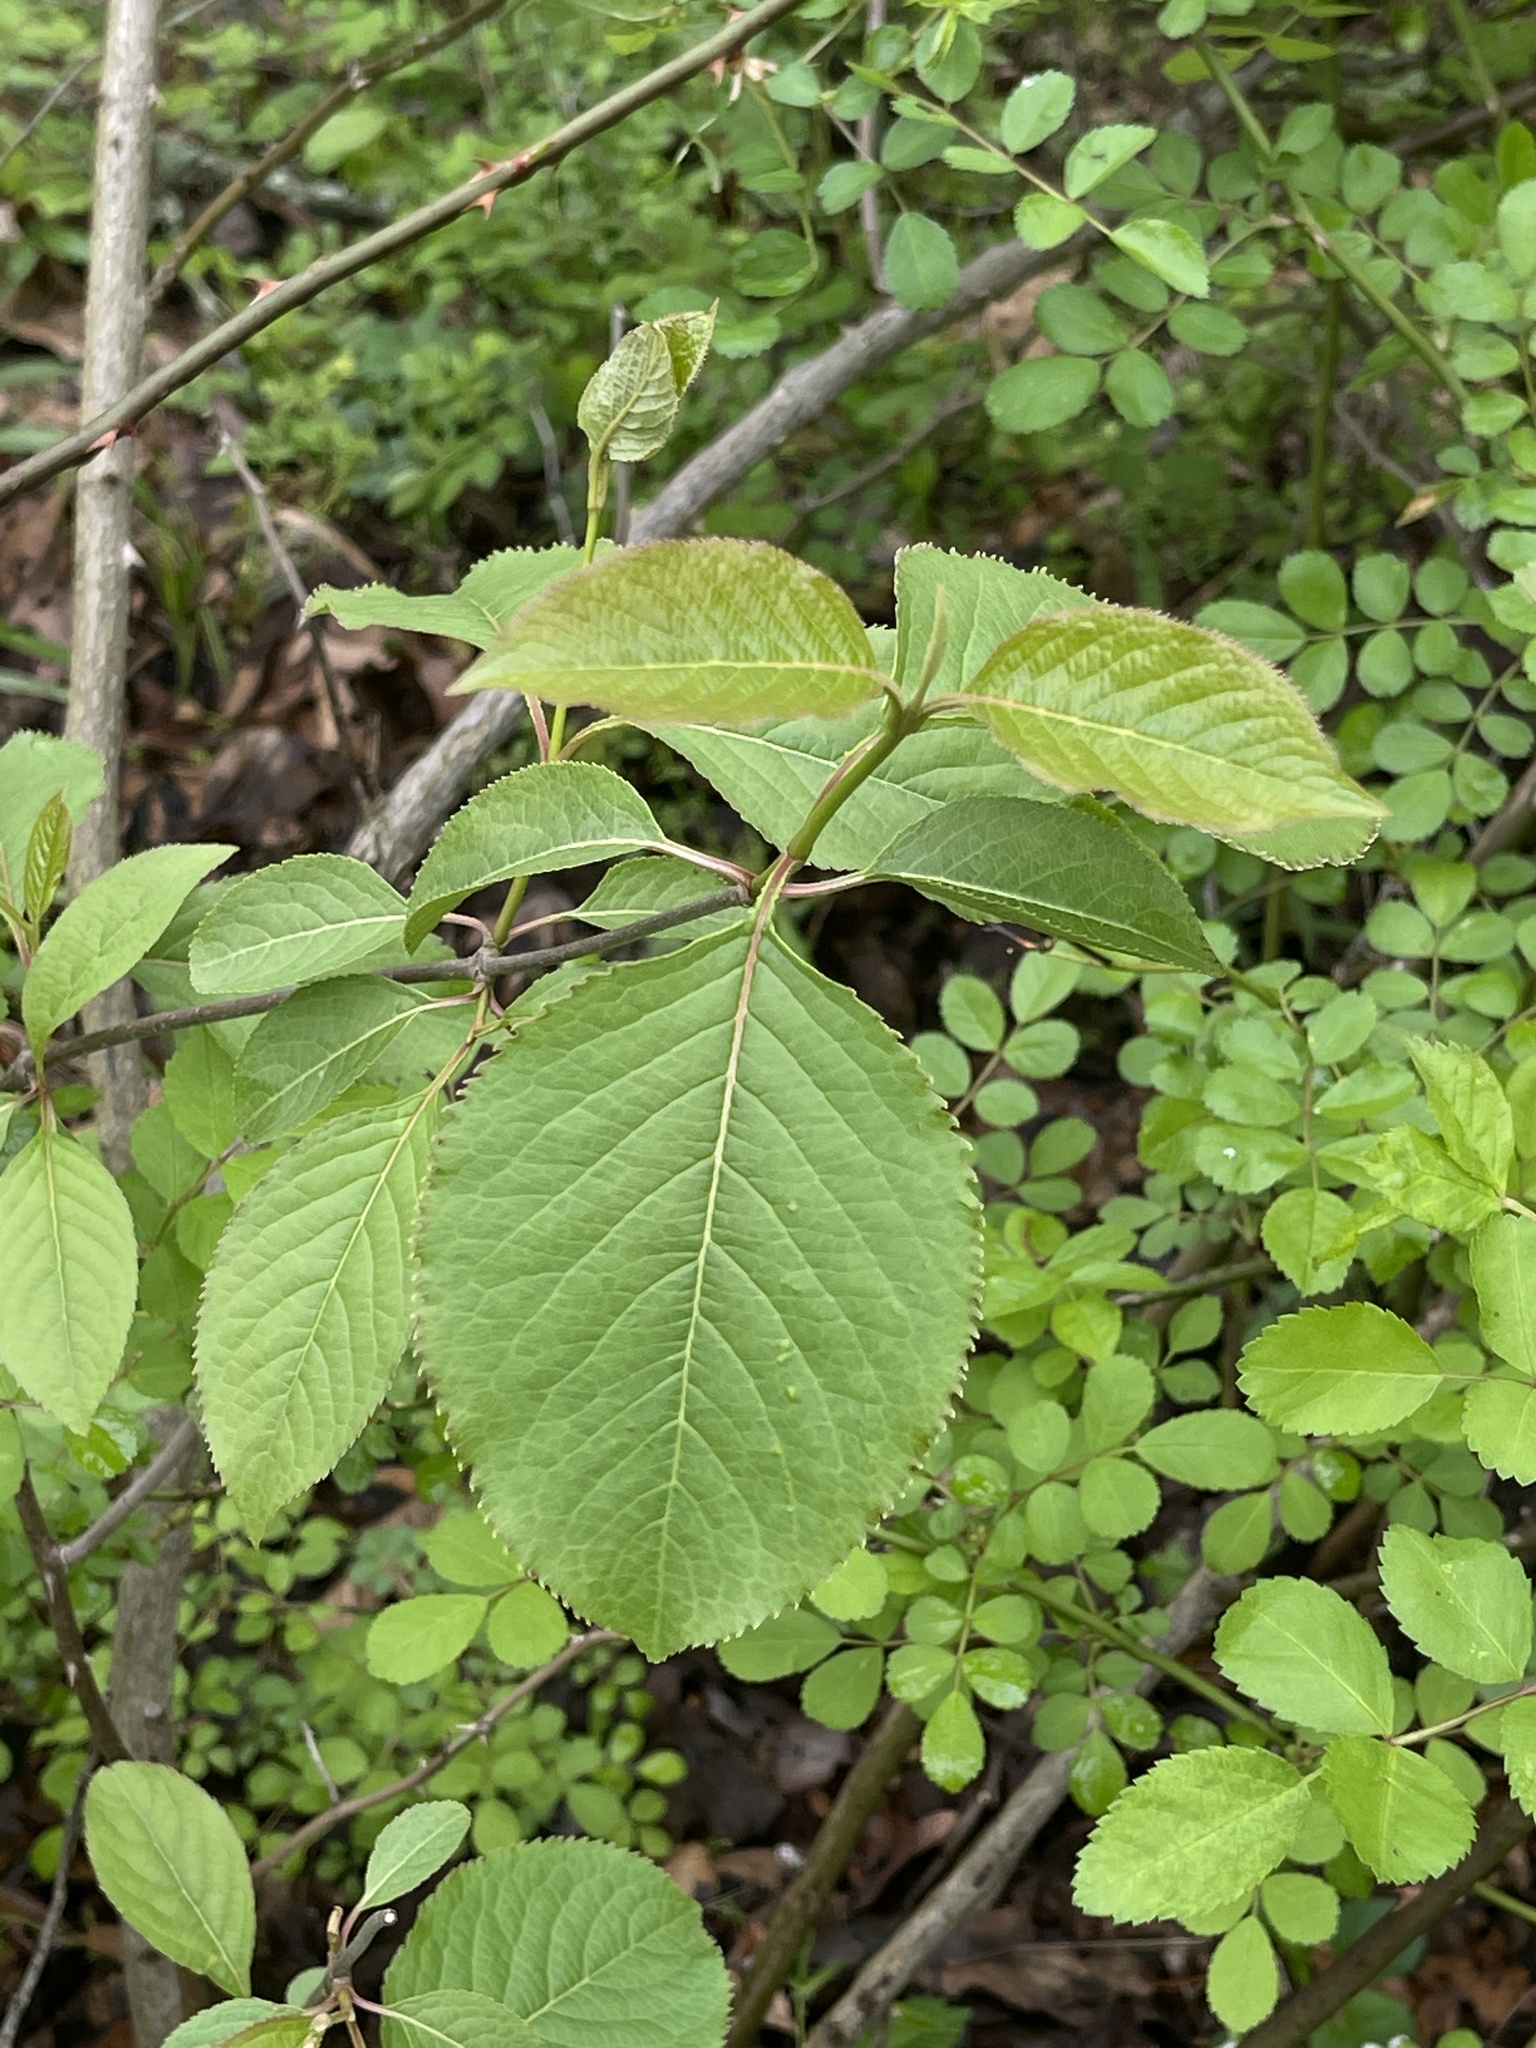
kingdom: Plantae
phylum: Tracheophyta
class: Magnoliopsida
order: Dipsacales
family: Viburnaceae
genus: Viburnum
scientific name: Viburnum lentago
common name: Black haw
